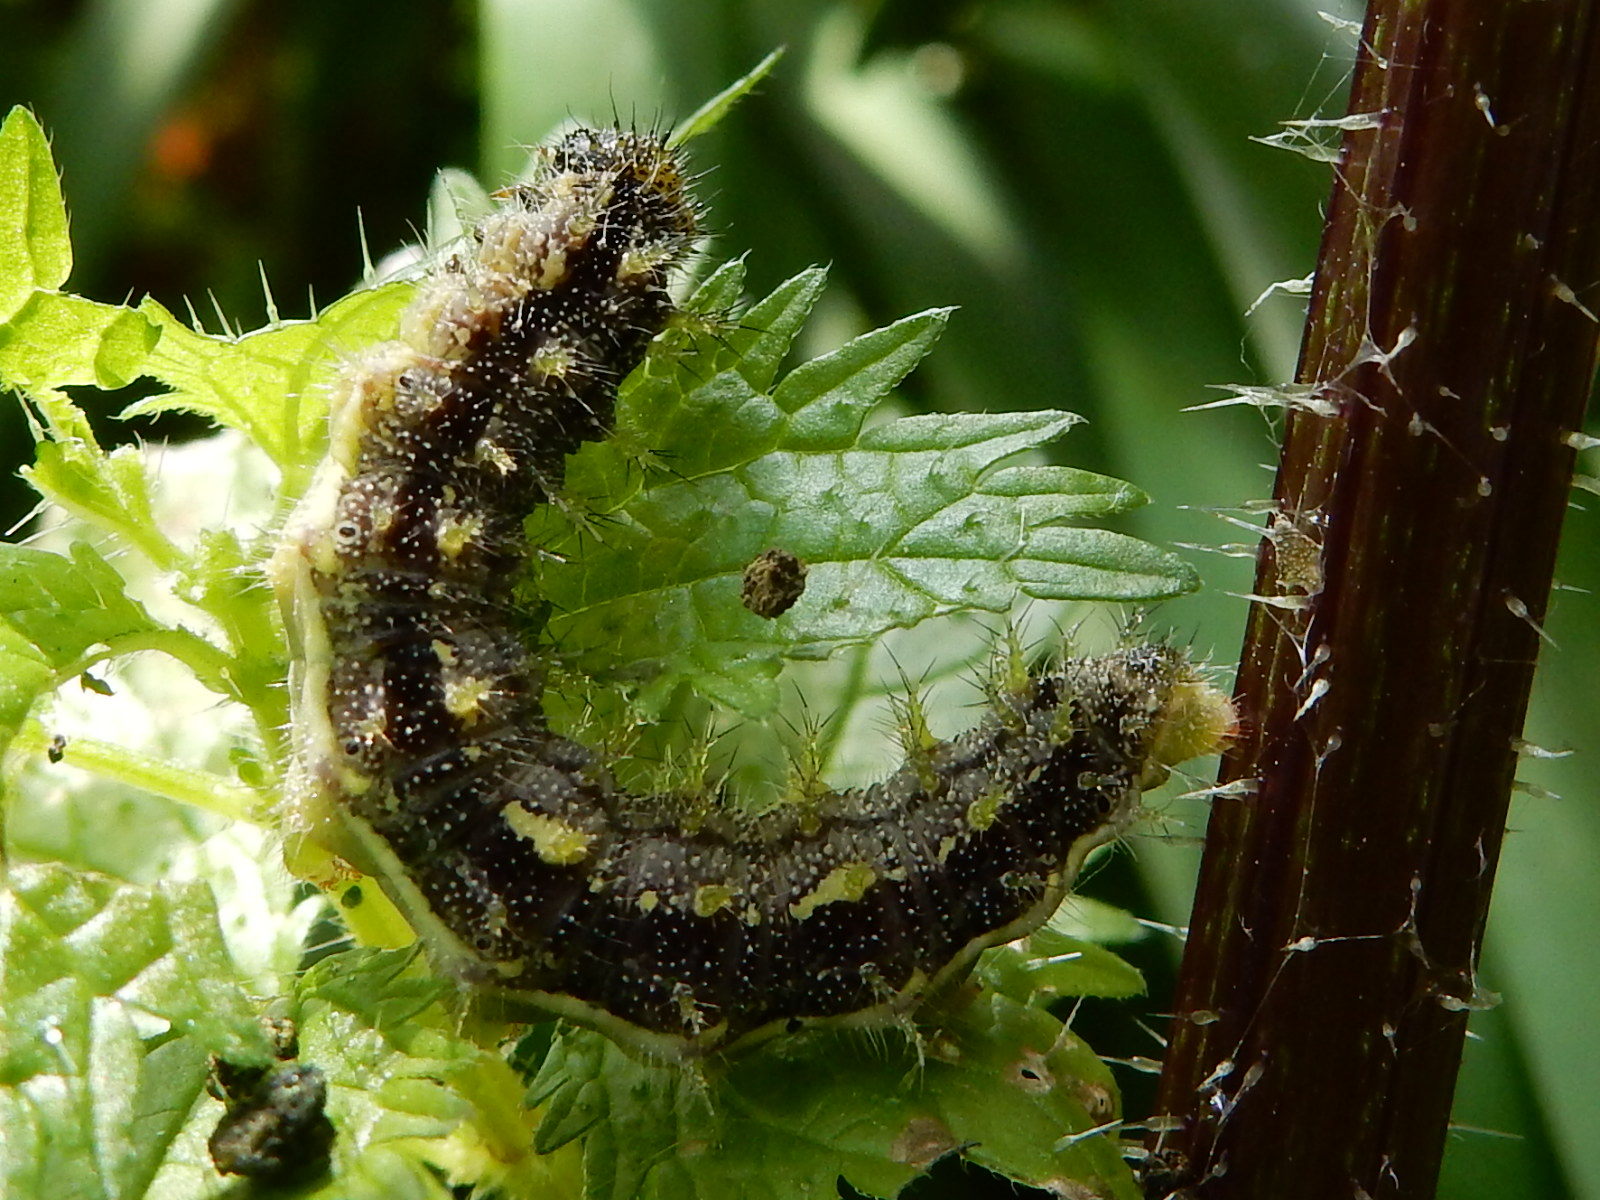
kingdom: Animalia
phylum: Arthropoda
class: Insecta
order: Lepidoptera
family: Nymphalidae
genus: Vanessa
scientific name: Vanessa itea
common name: Yellow admiral
